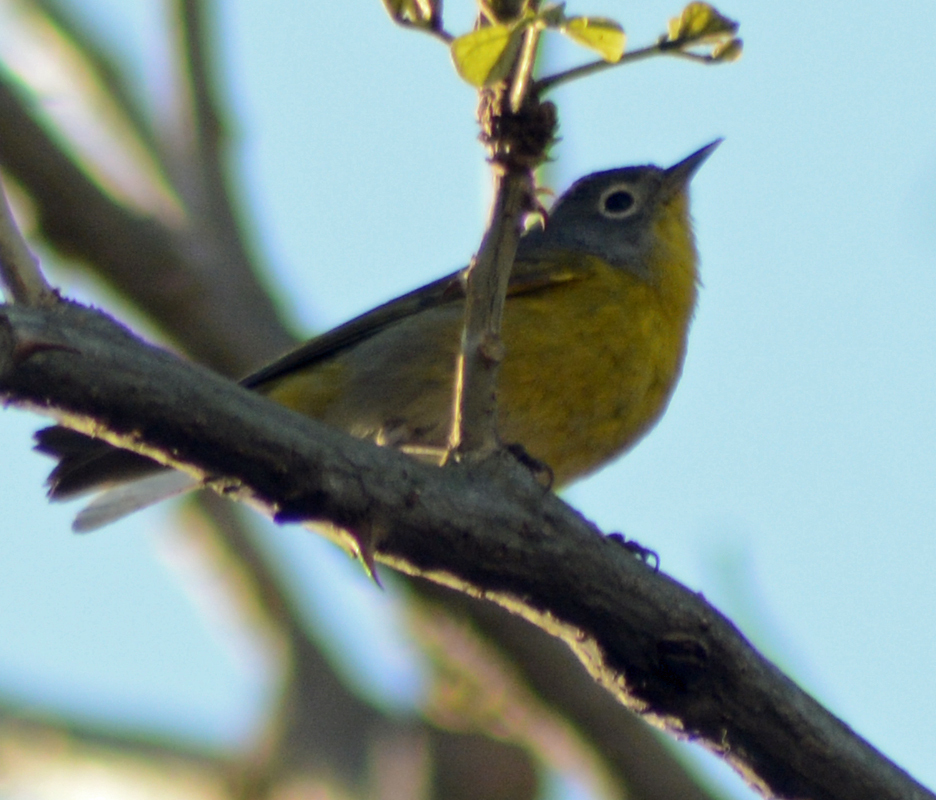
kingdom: Animalia
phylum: Chordata
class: Aves
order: Passeriformes
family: Parulidae
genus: Leiothlypis
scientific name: Leiothlypis ruficapilla
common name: Nashville warbler
